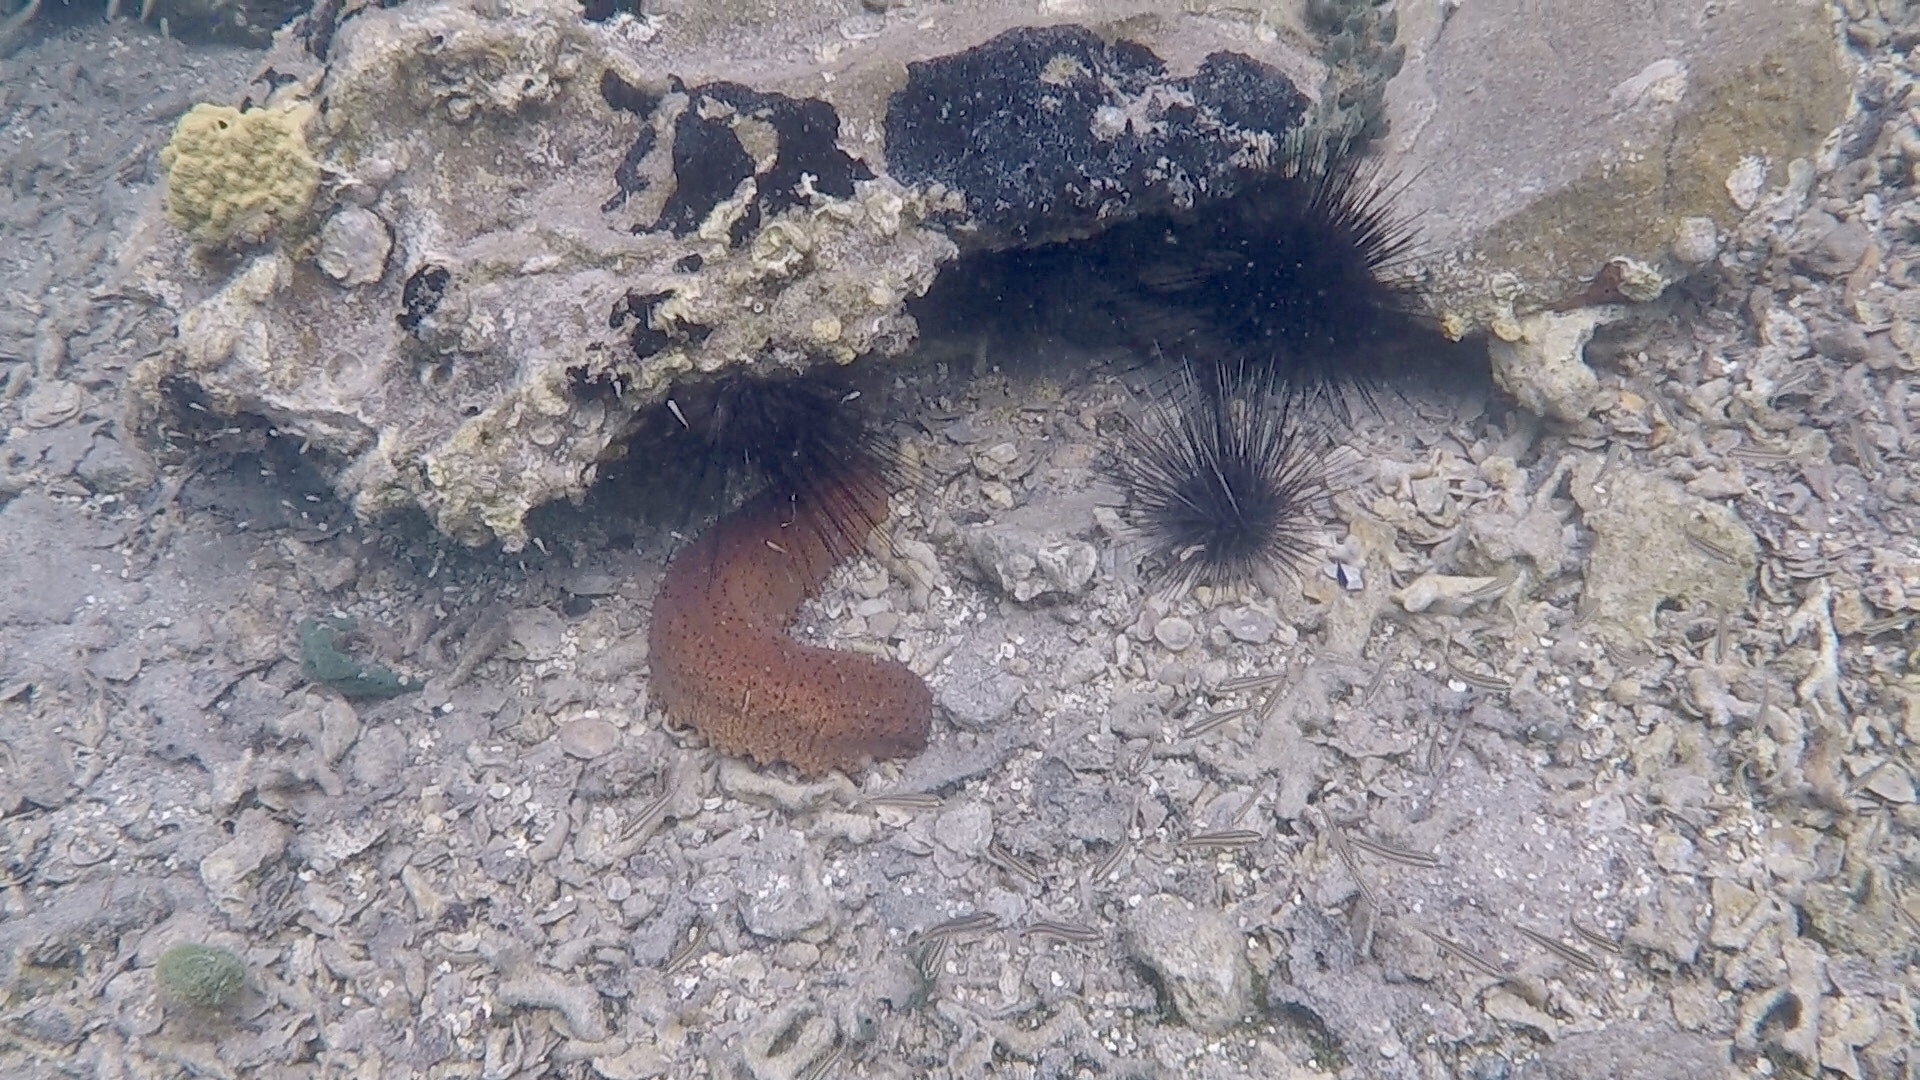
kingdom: Animalia
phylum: Echinodermata
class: Holothuroidea
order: Synallactida
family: Stichopodidae
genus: Isostichopus
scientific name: Isostichopus badionotus
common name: Chocolate chip cucumber
